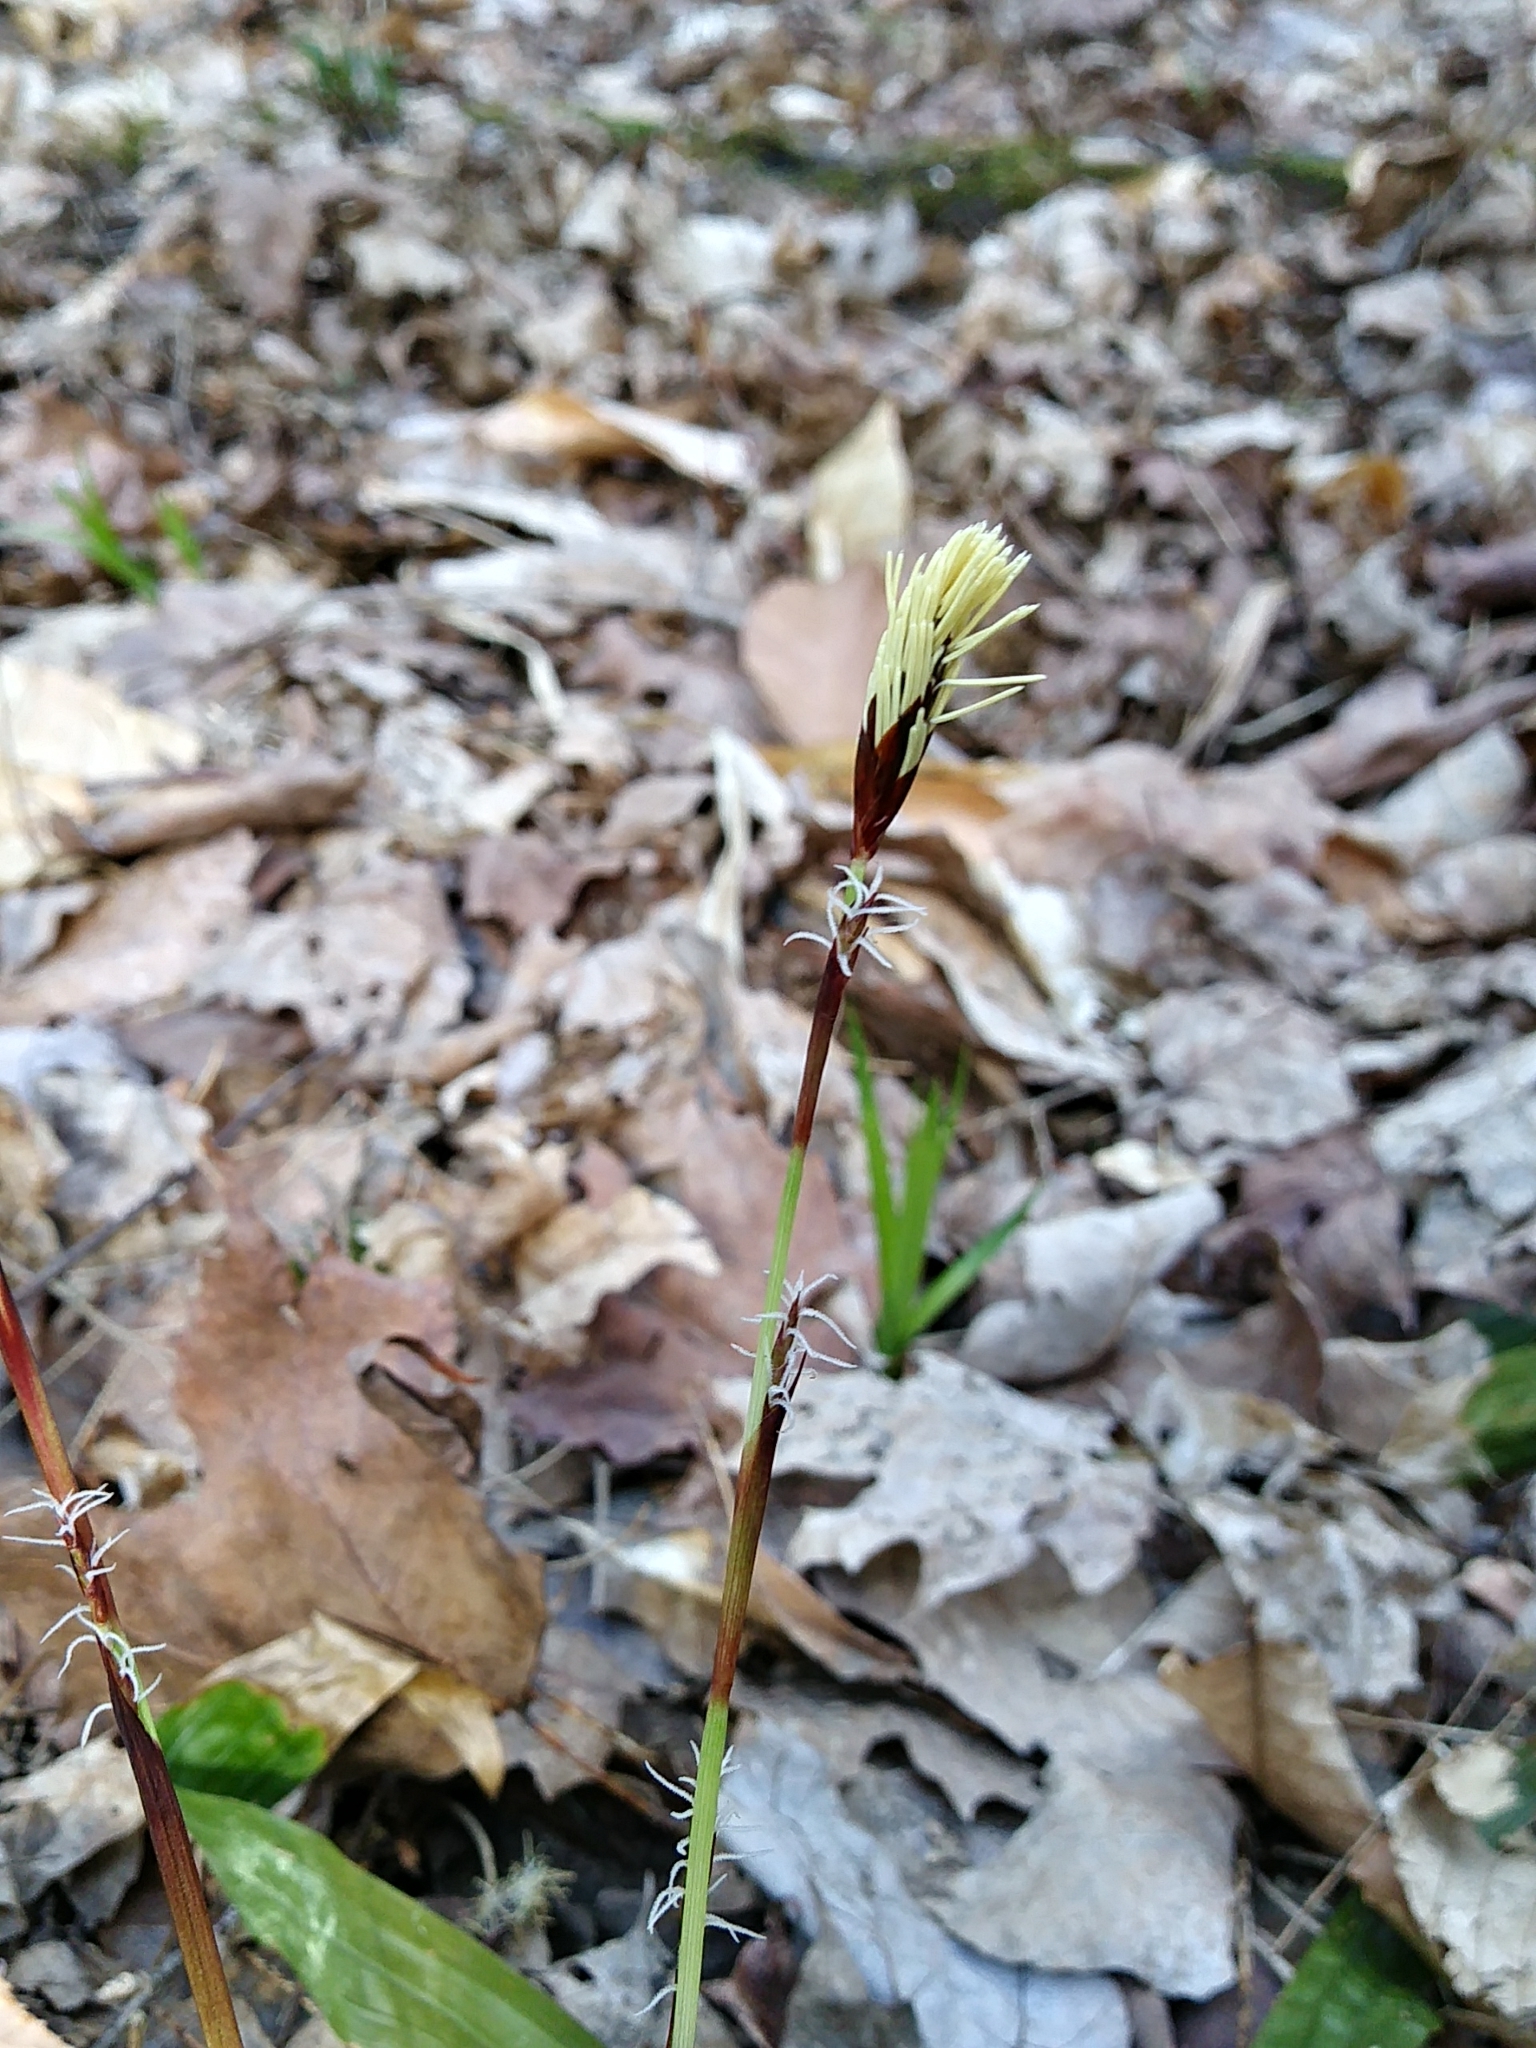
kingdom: Plantae
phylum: Tracheophyta
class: Liliopsida
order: Poales
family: Cyperaceae
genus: Carex
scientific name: Carex plantaginea
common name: Plantain-leaved sedge
